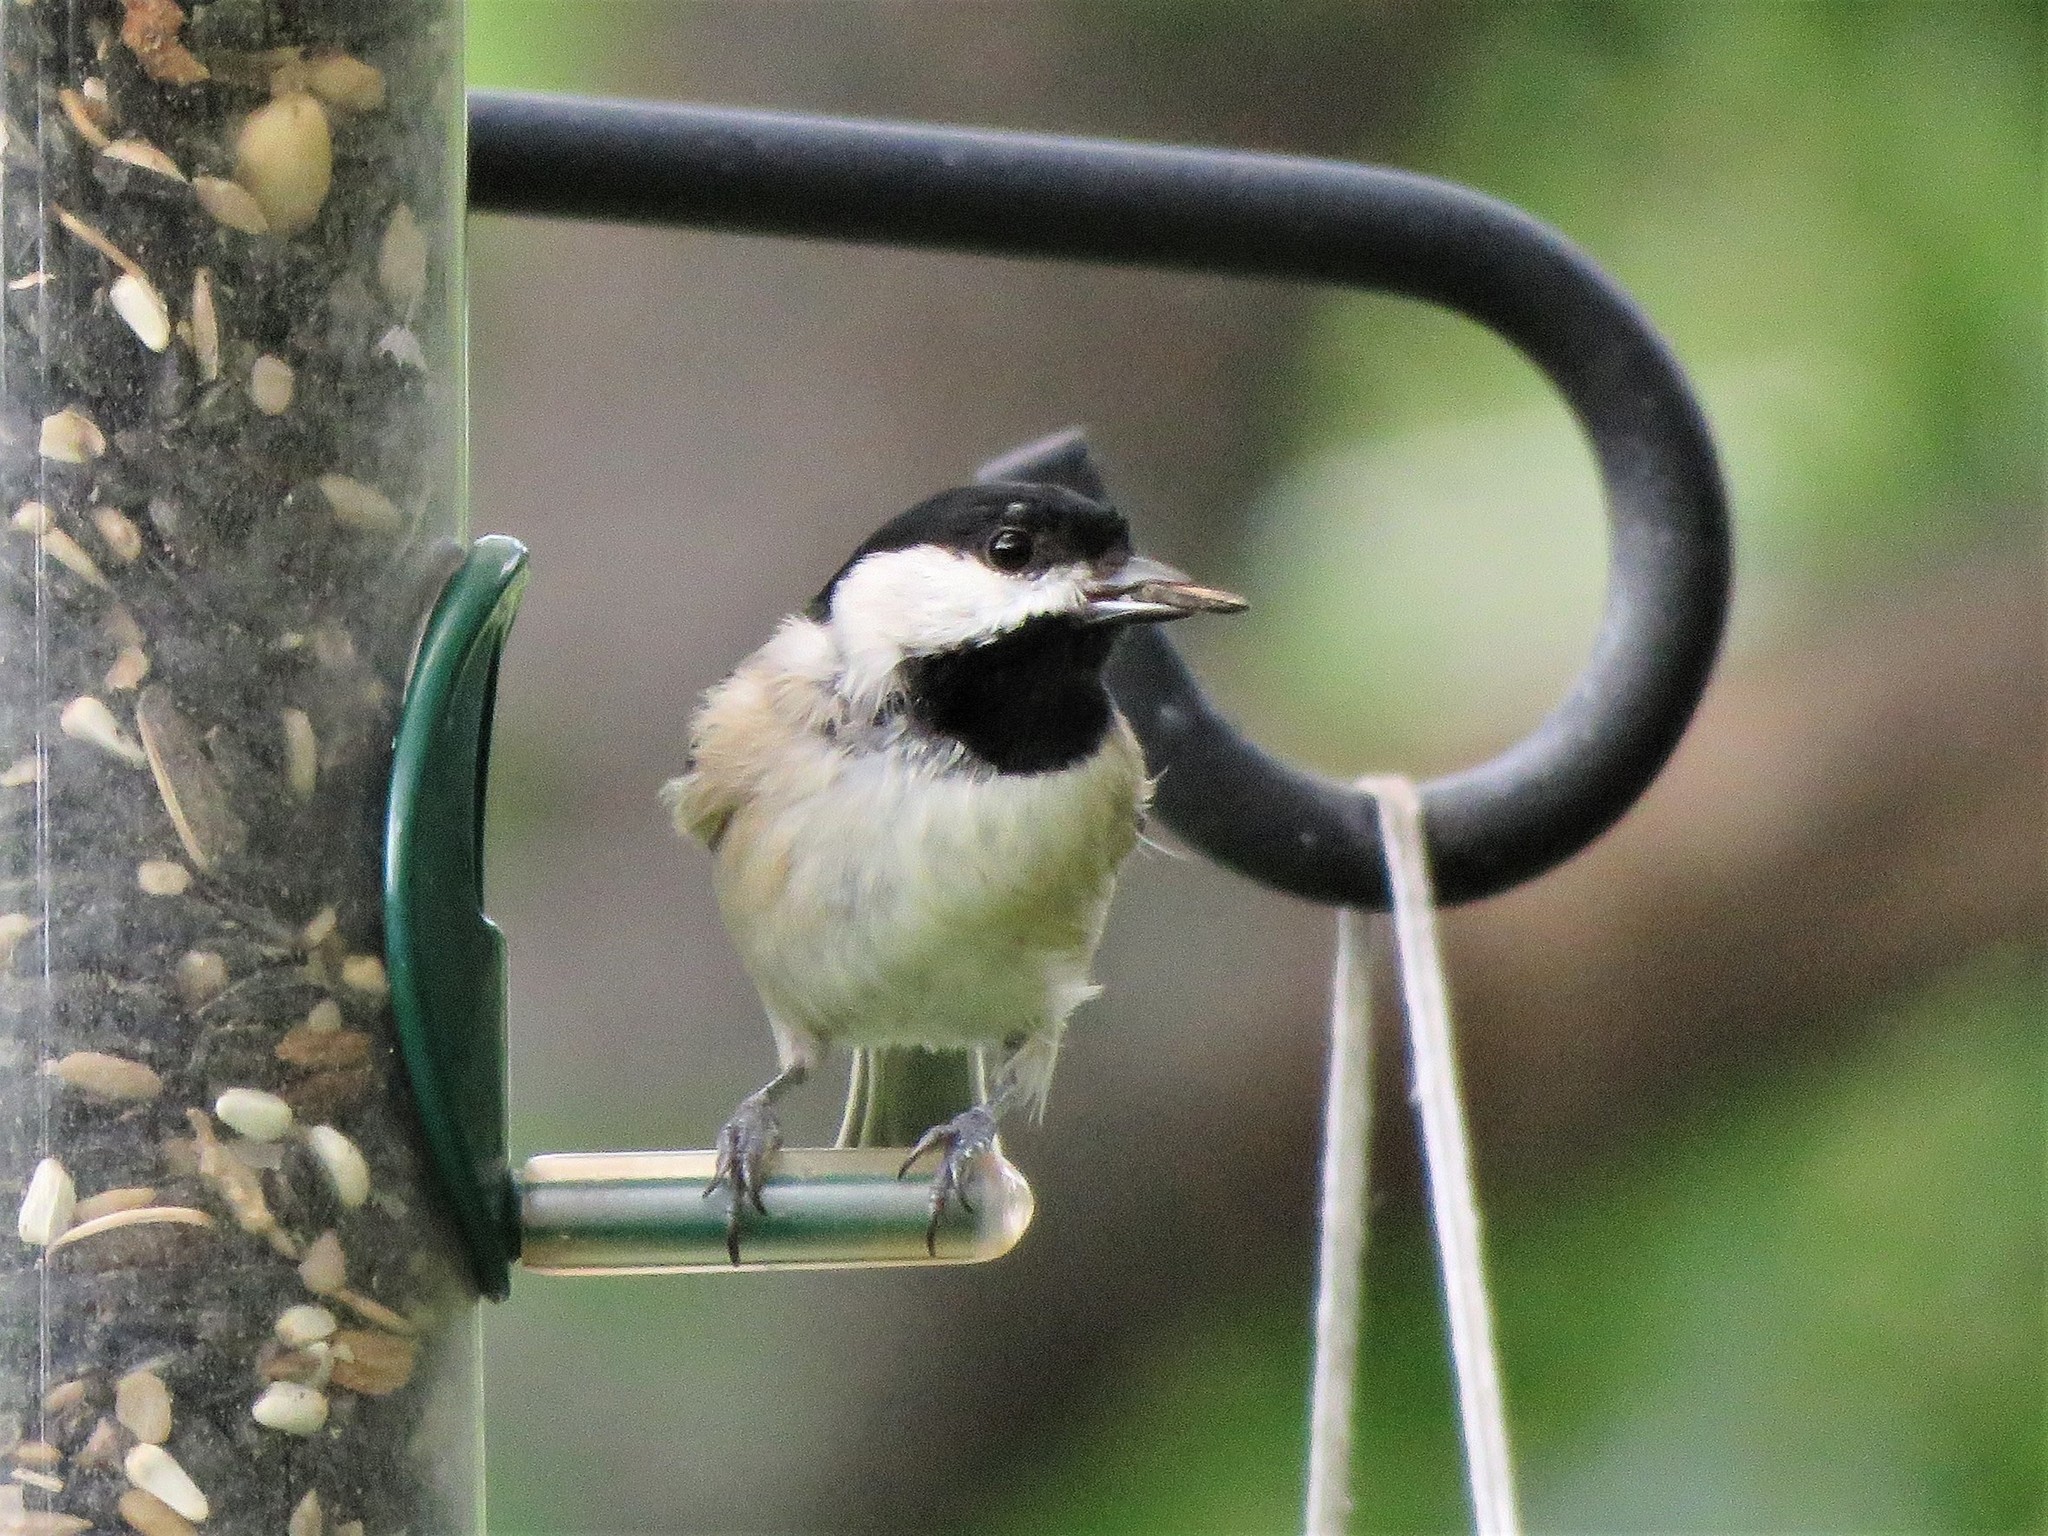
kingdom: Animalia
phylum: Chordata
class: Aves
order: Passeriformes
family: Paridae
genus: Poecile
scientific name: Poecile carolinensis
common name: Carolina chickadee
